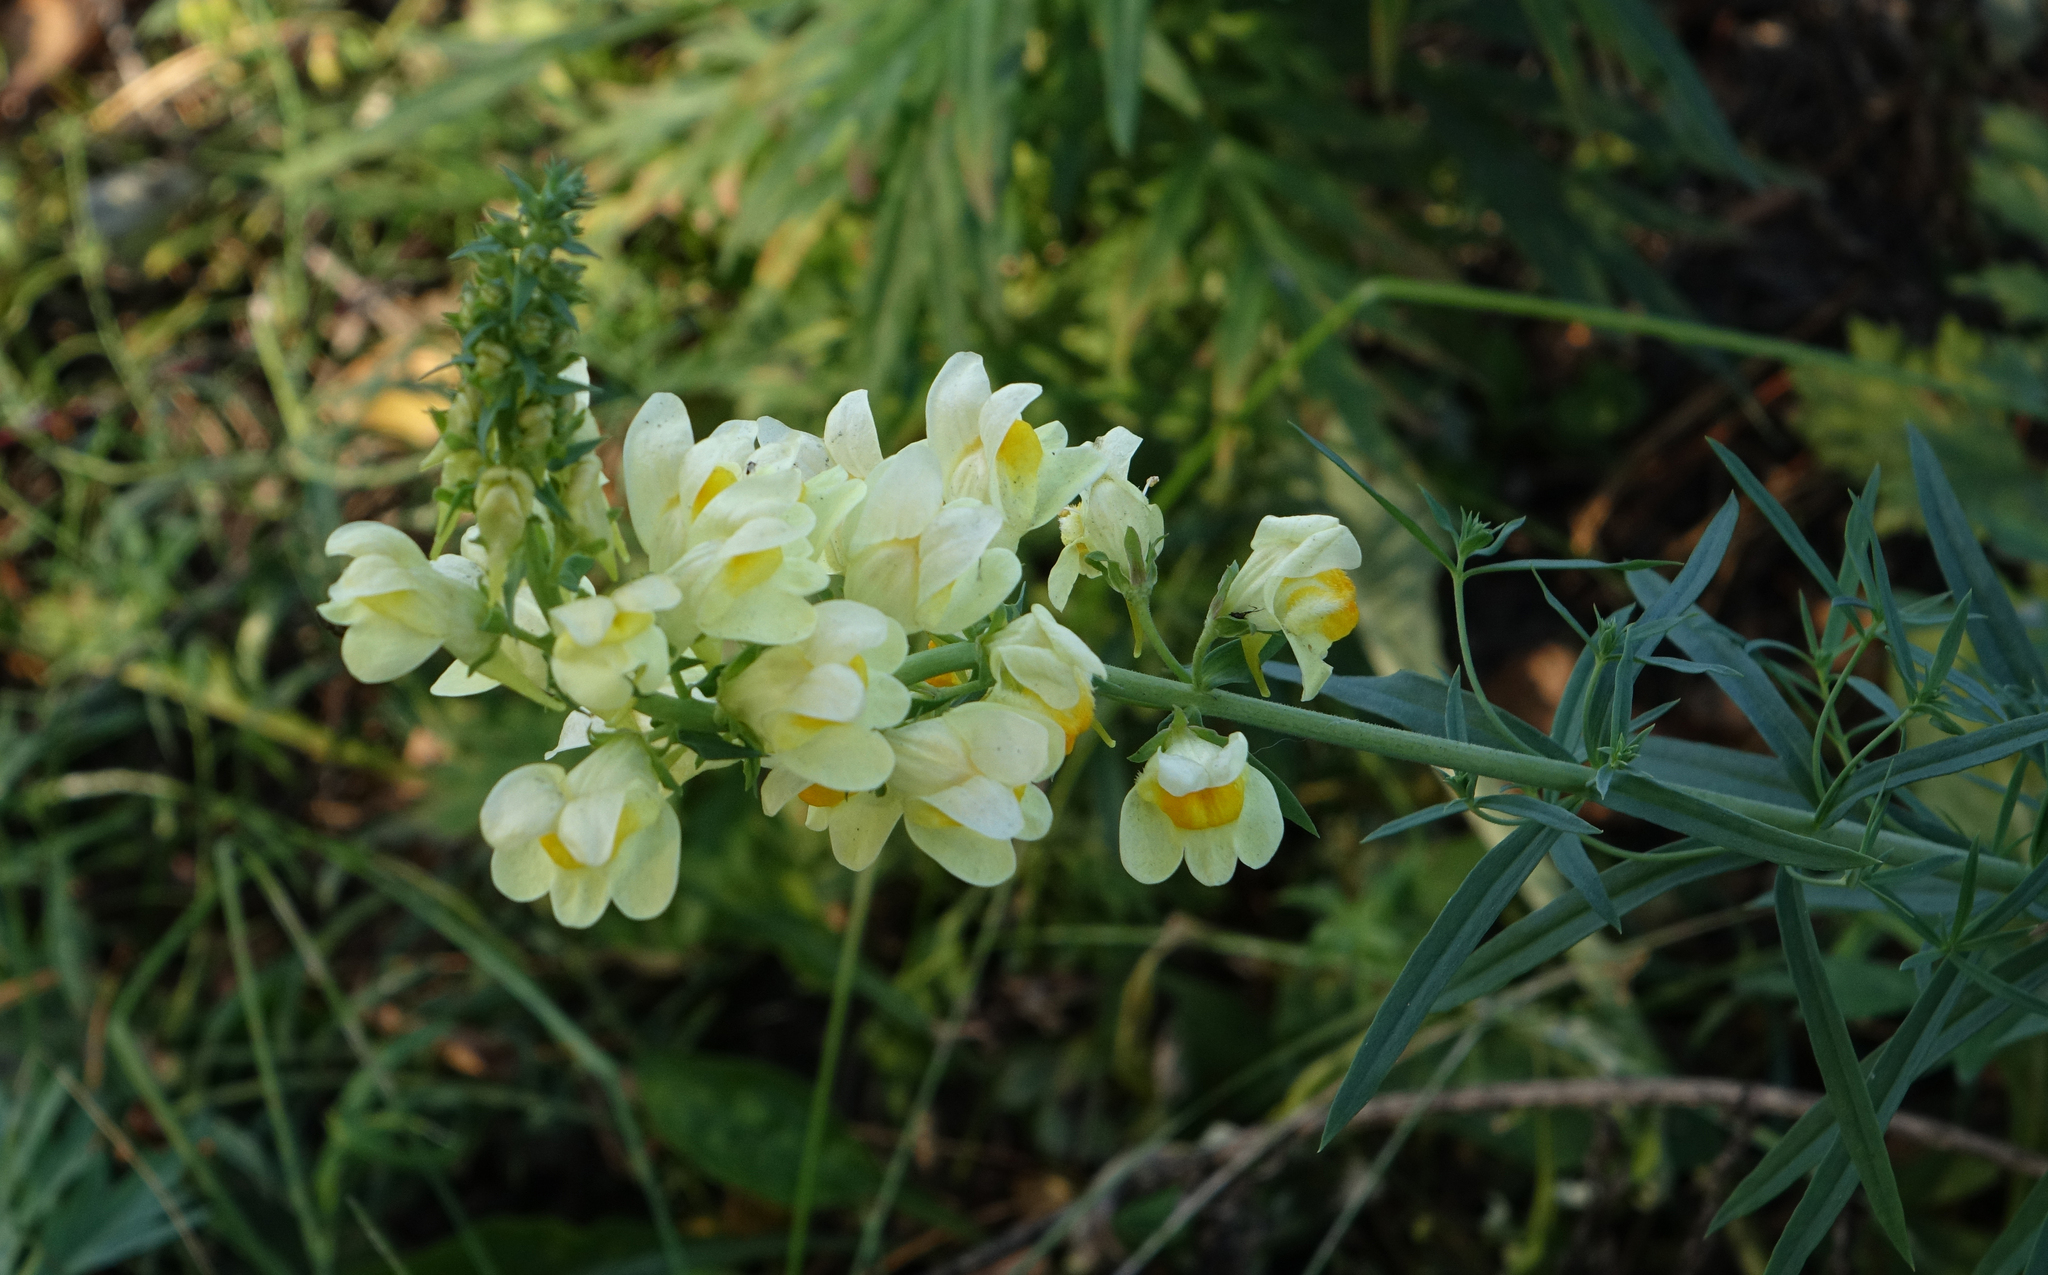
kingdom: Plantae
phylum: Tracheophyta
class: Magnoliopsida
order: Lamiales
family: Plantaginaceae
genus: Linaria
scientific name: Linaria vulgaris
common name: Butter and eggs
